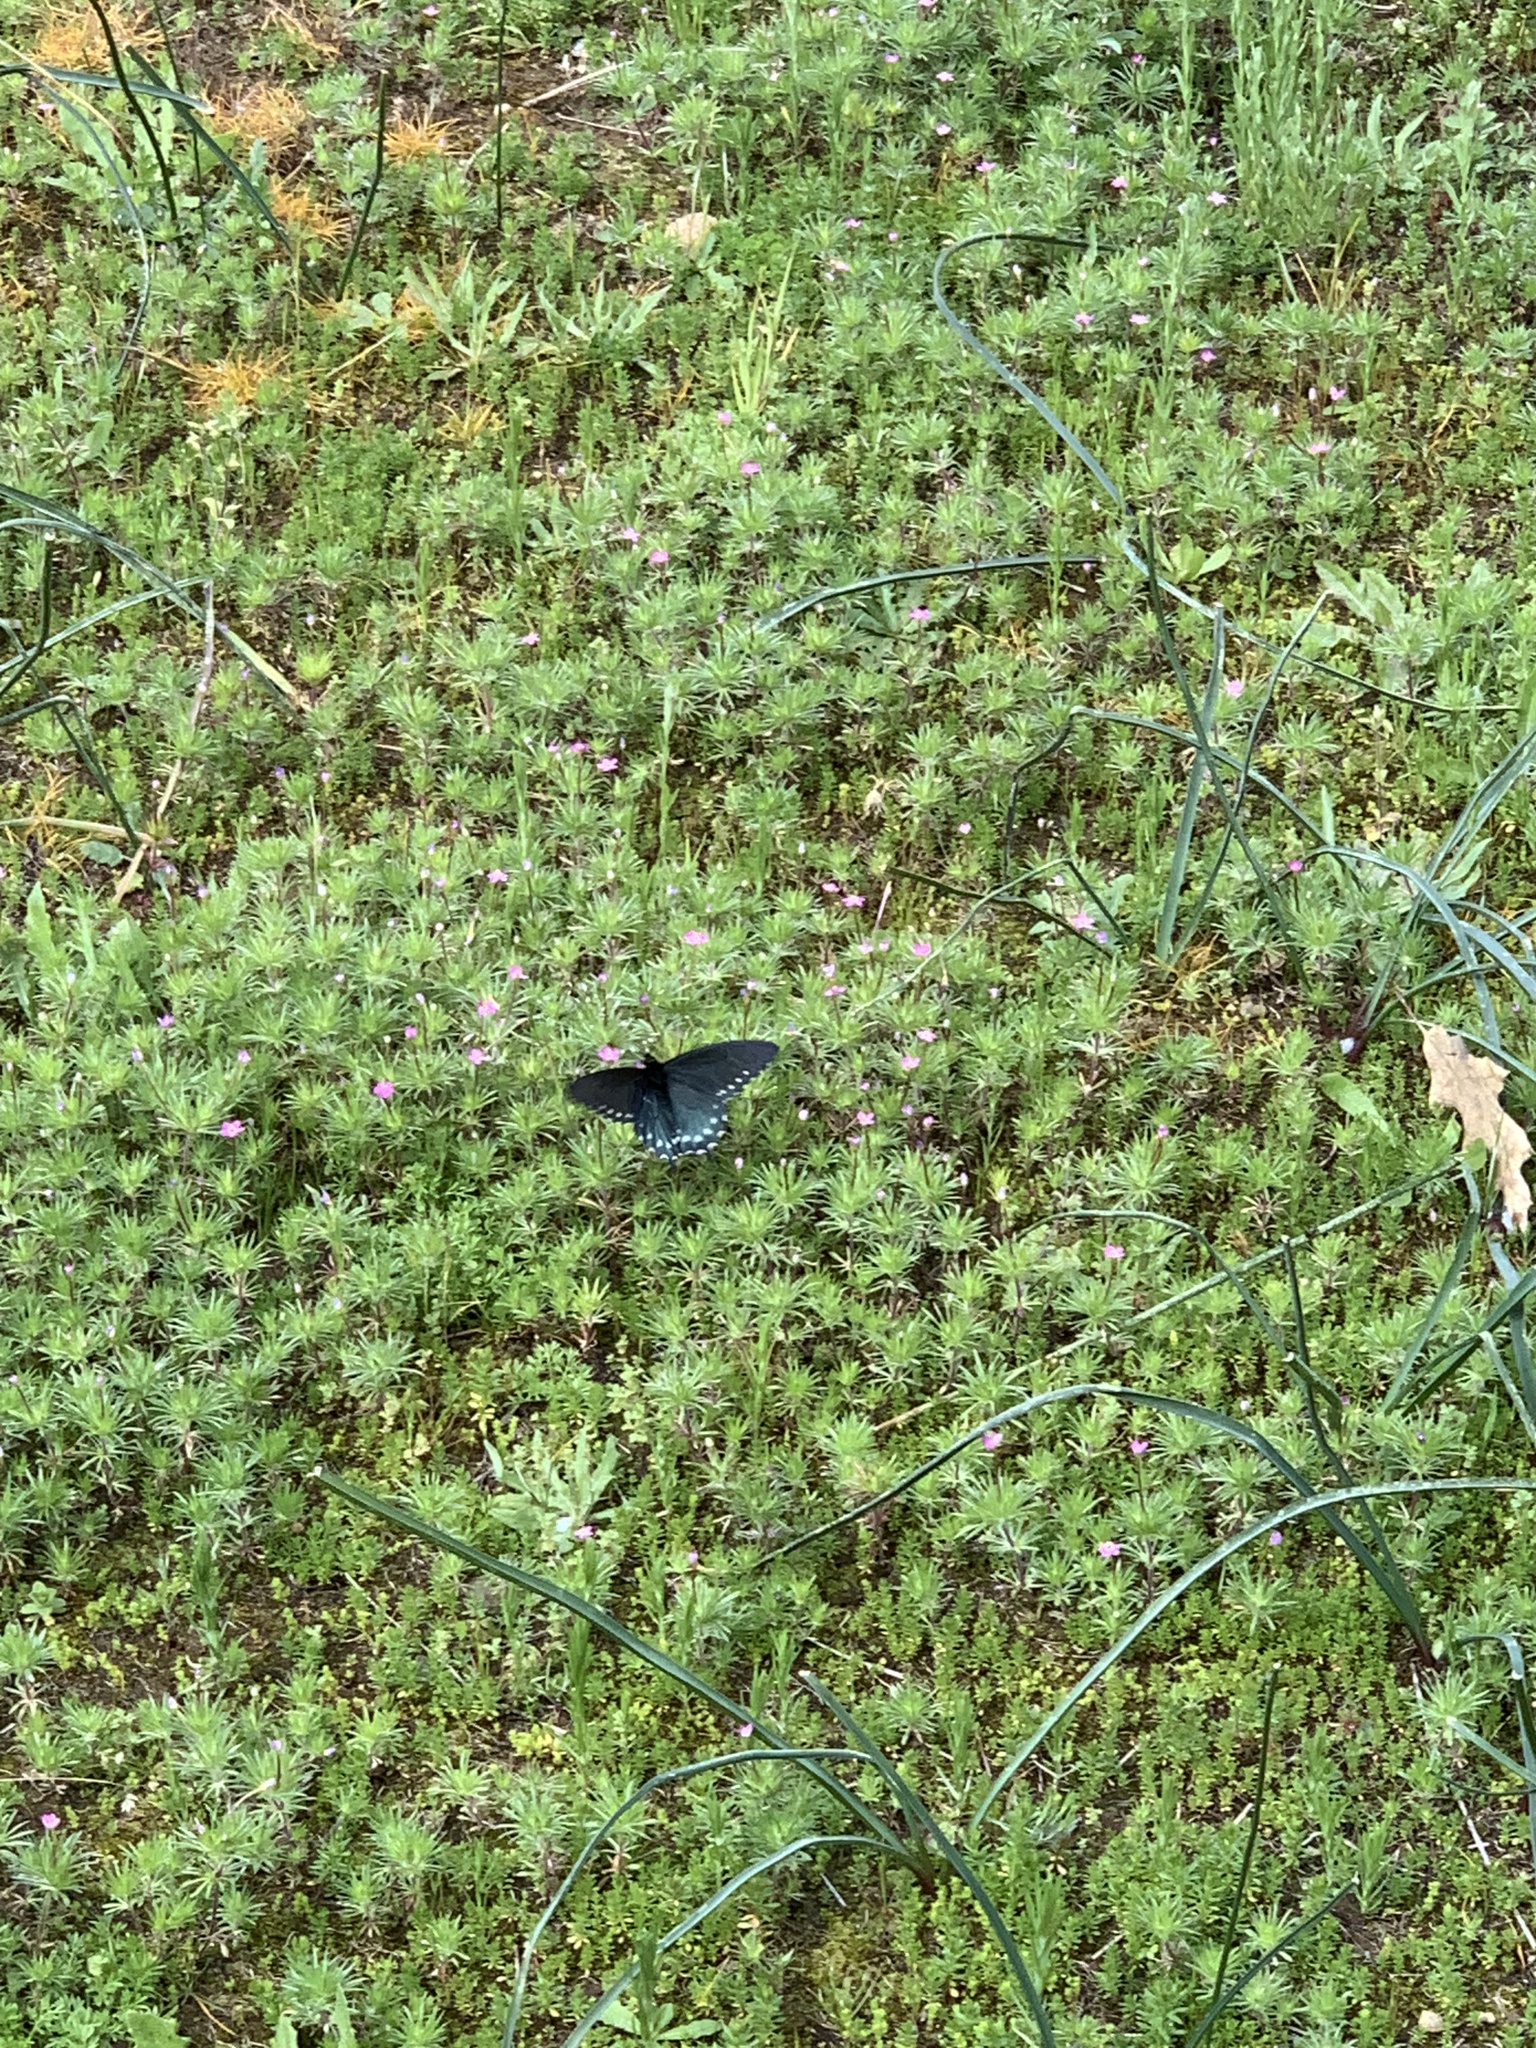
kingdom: Animalia
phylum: Arthropoda
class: Insecta
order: Lepidoptera
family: Papilionidae
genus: Battus
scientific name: Battus philenor
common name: Pipevine swallowtail
